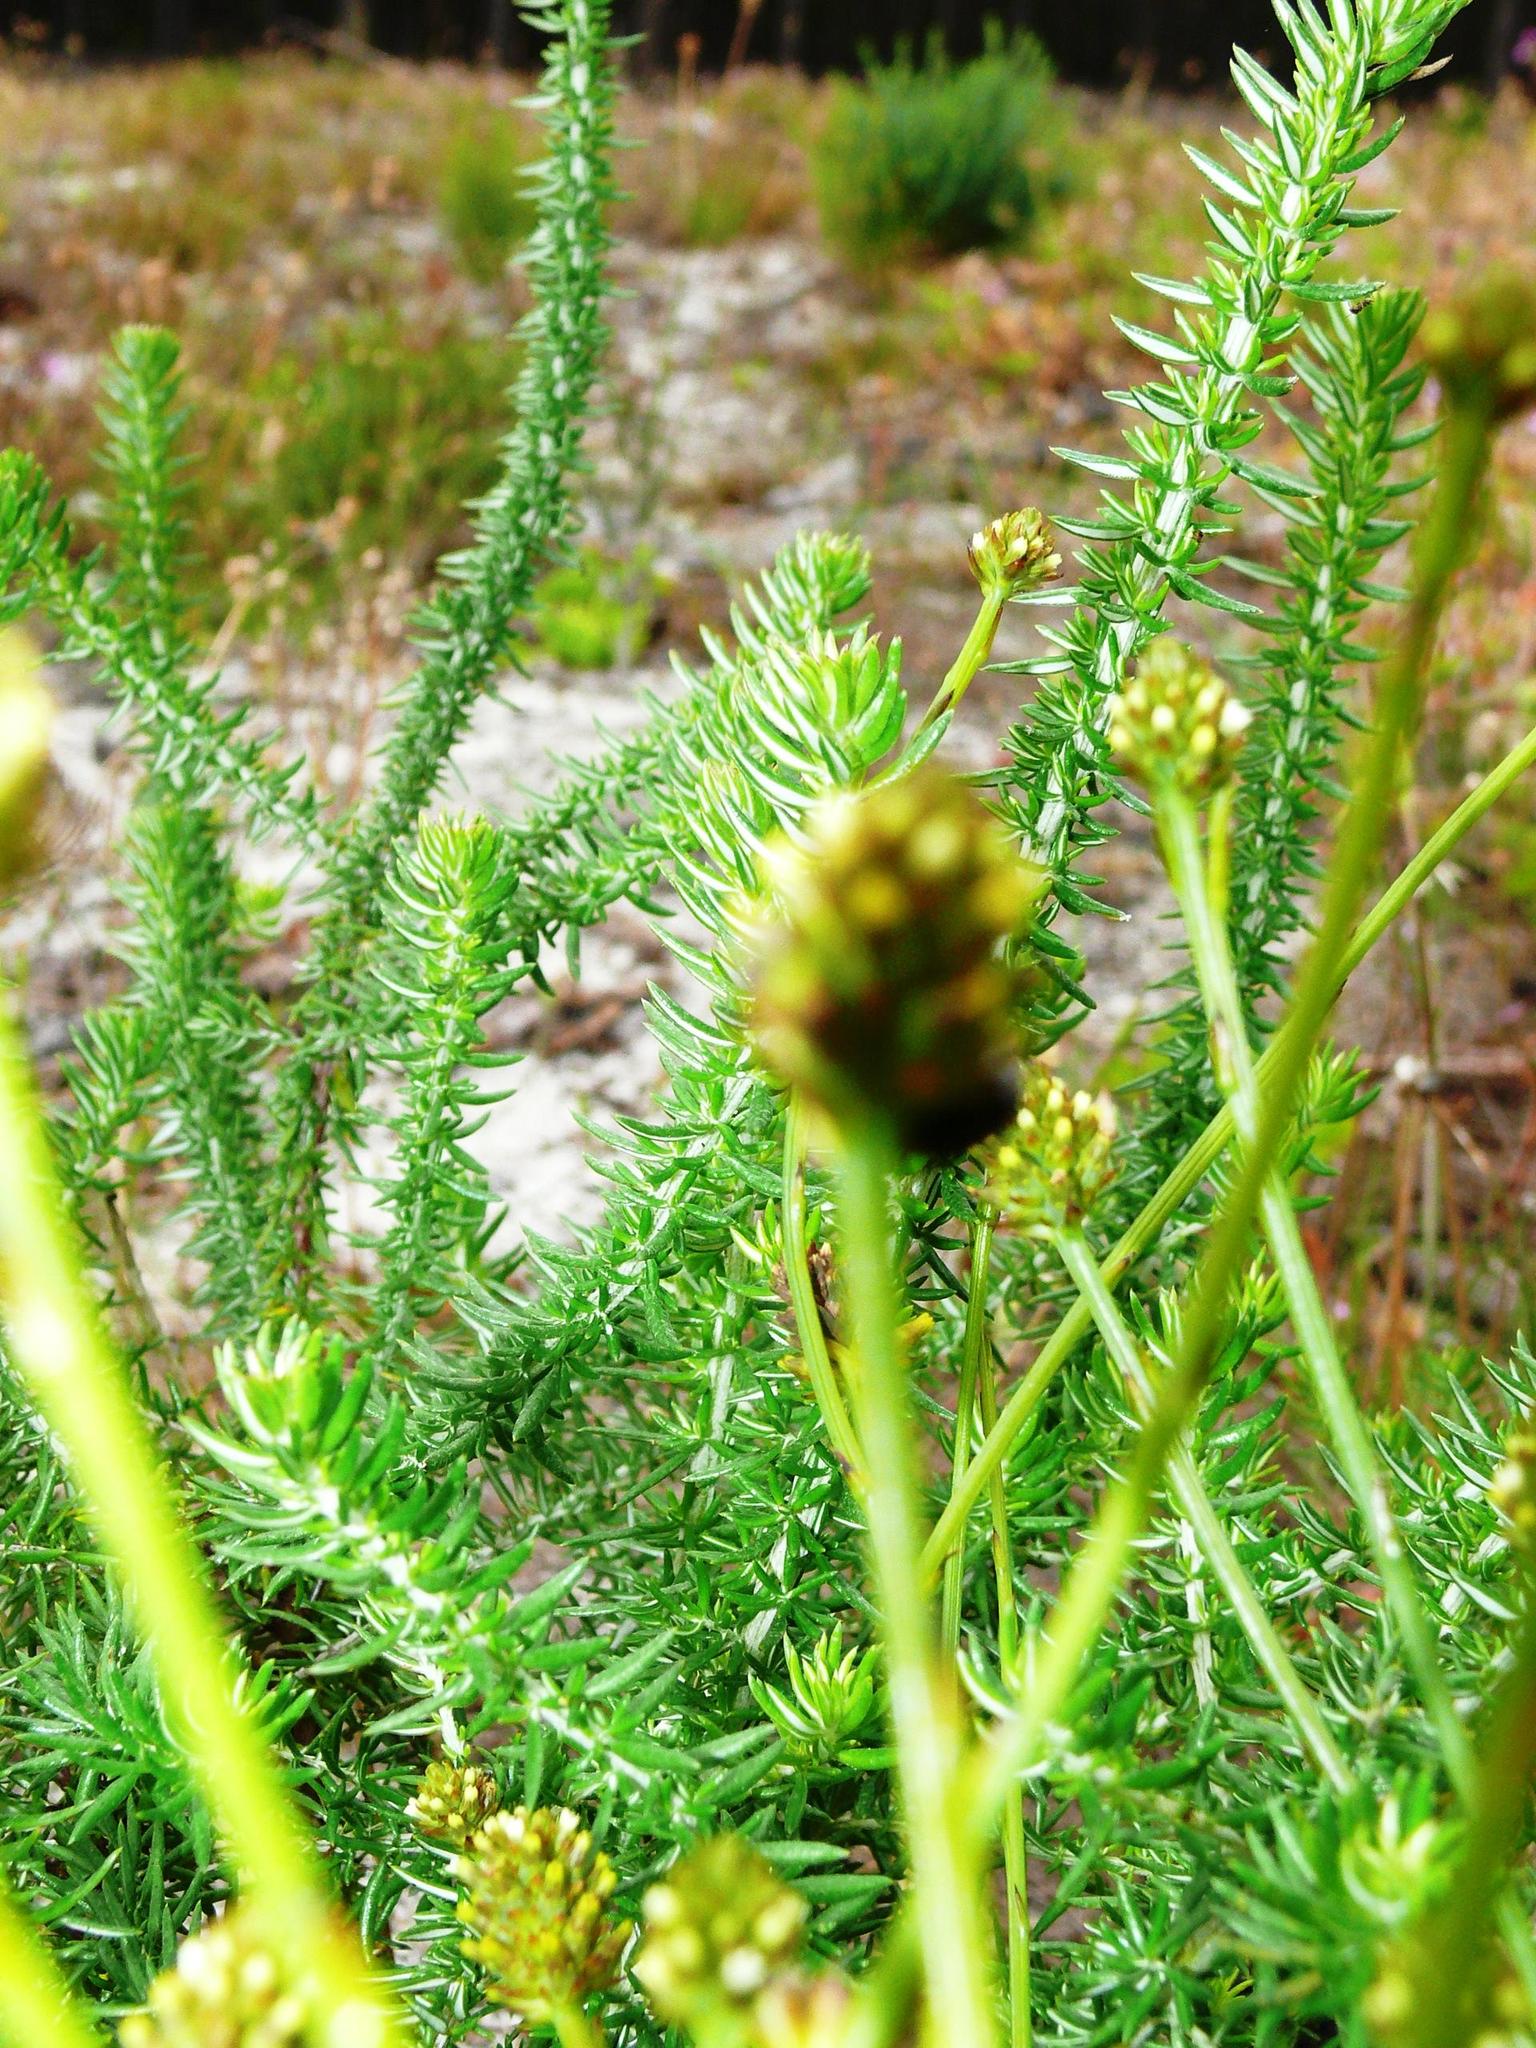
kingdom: Plantae
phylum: Tracheophyta
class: Magnoliopsida
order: Santalales
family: Thesiaceae
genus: Thesium
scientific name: Thesium aggregatum
